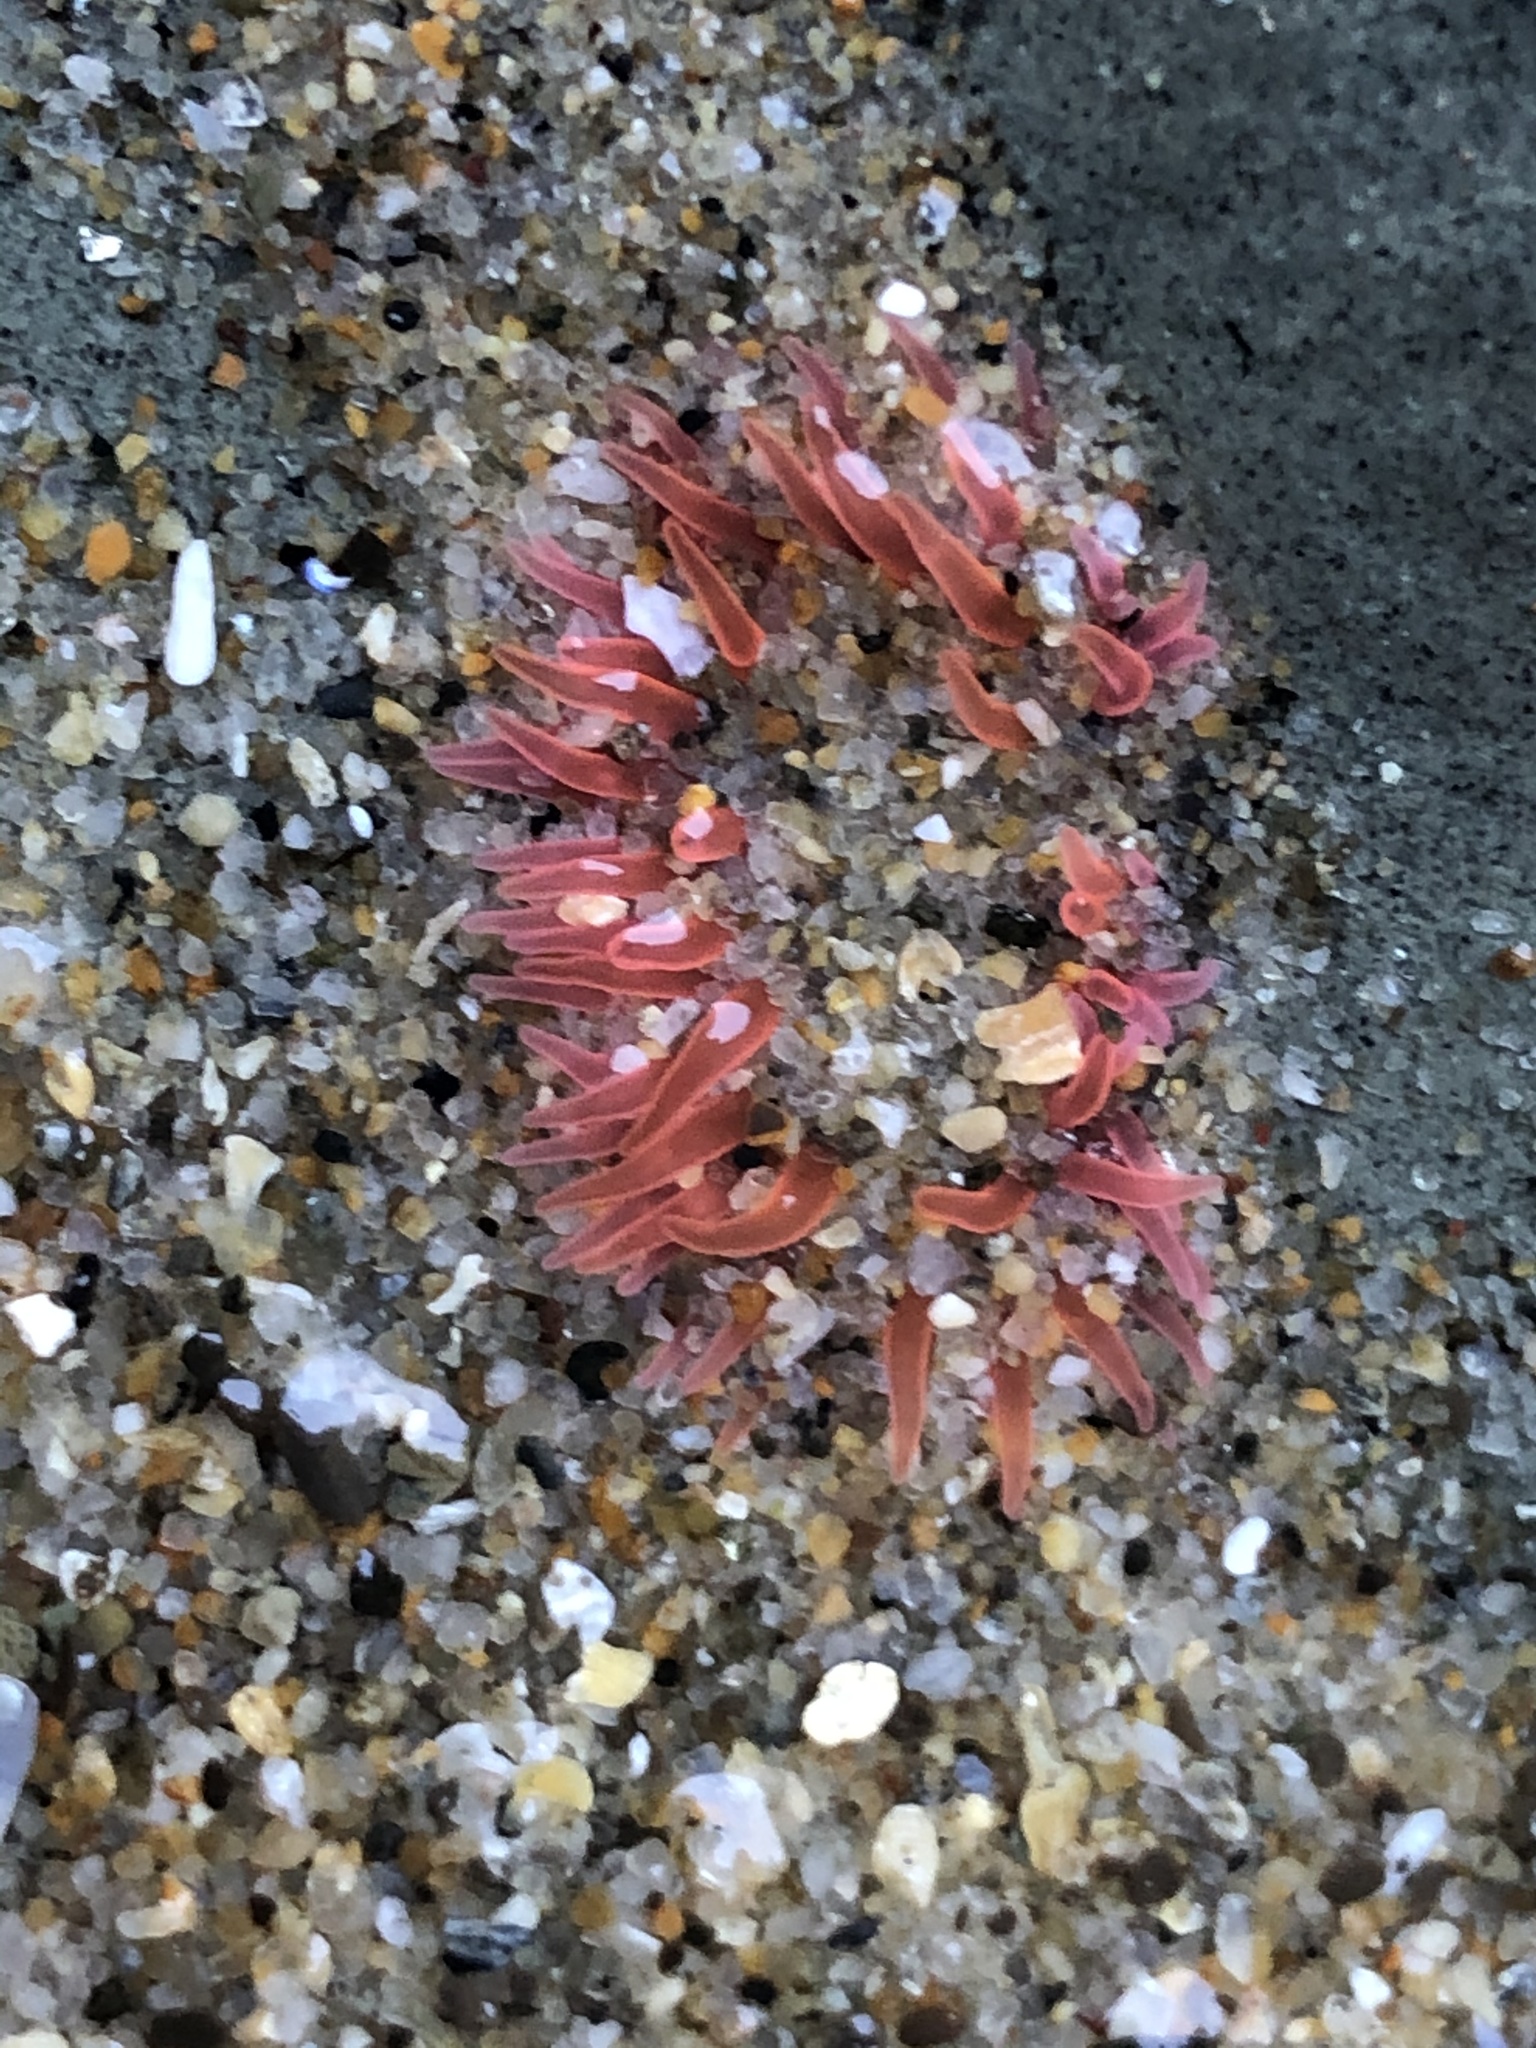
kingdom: Animalia
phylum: Cnidaria
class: Anthozoa
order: Actiniaria
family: Actiniidae
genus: Anthopleura
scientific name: Anthopleura artemisia
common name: Buried sea anemone
